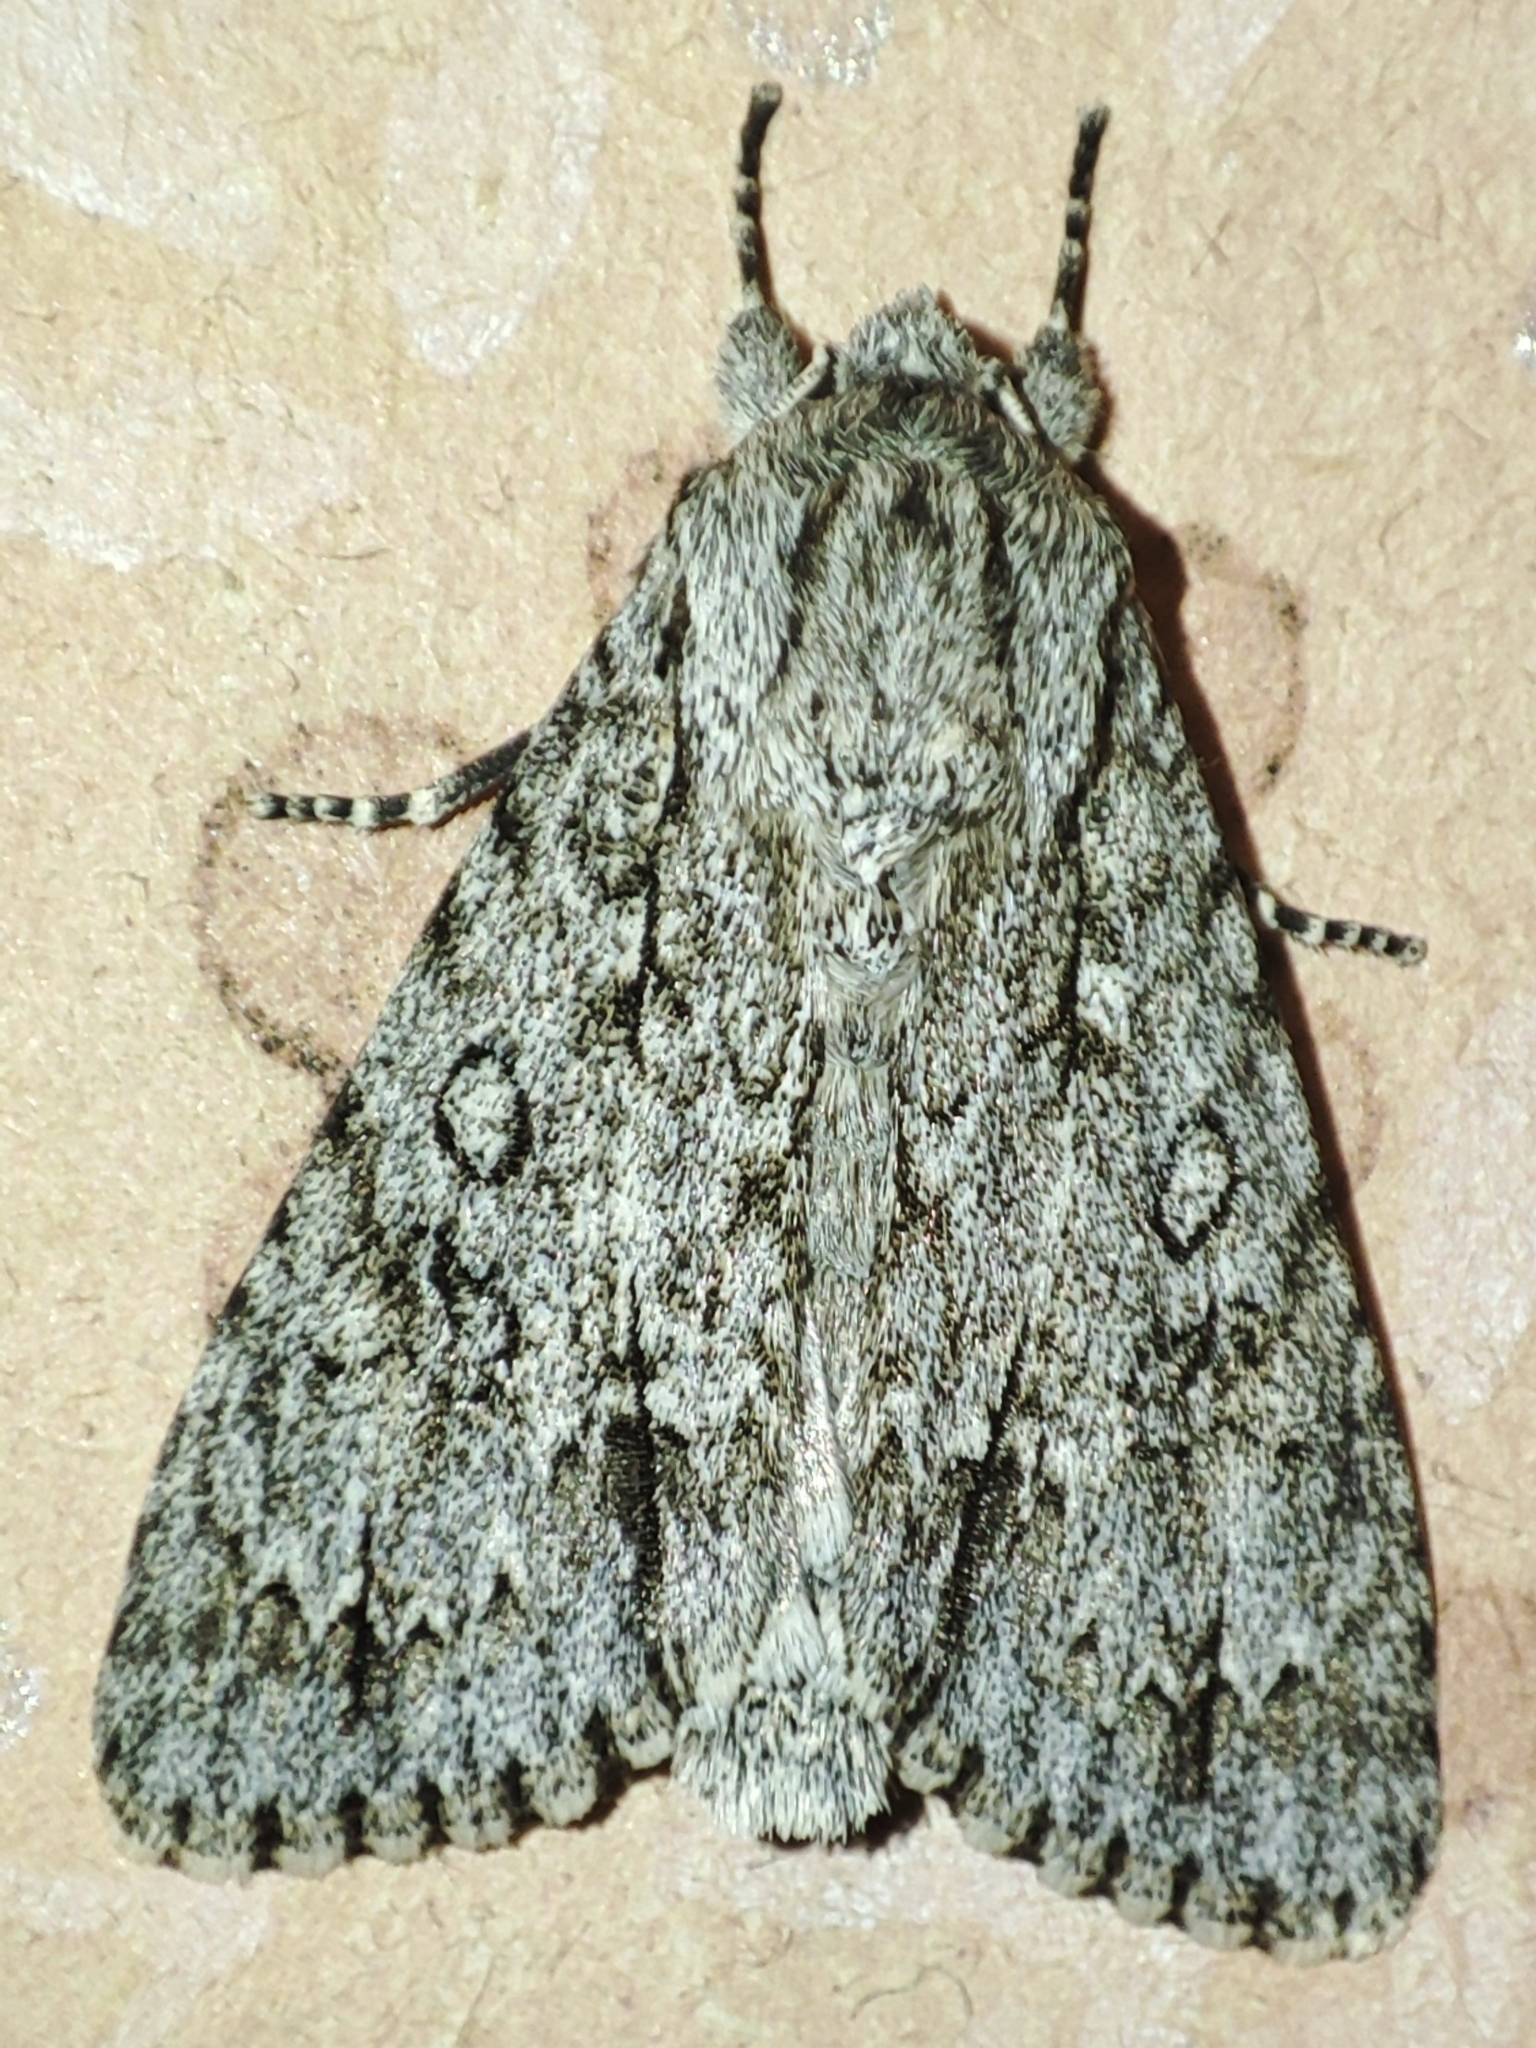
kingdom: Animalia
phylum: Arthropoda
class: Insecta
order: Lepidoptera
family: Noctuidae
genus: Acronicta
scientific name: Acronicta aceris
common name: Sycamore
